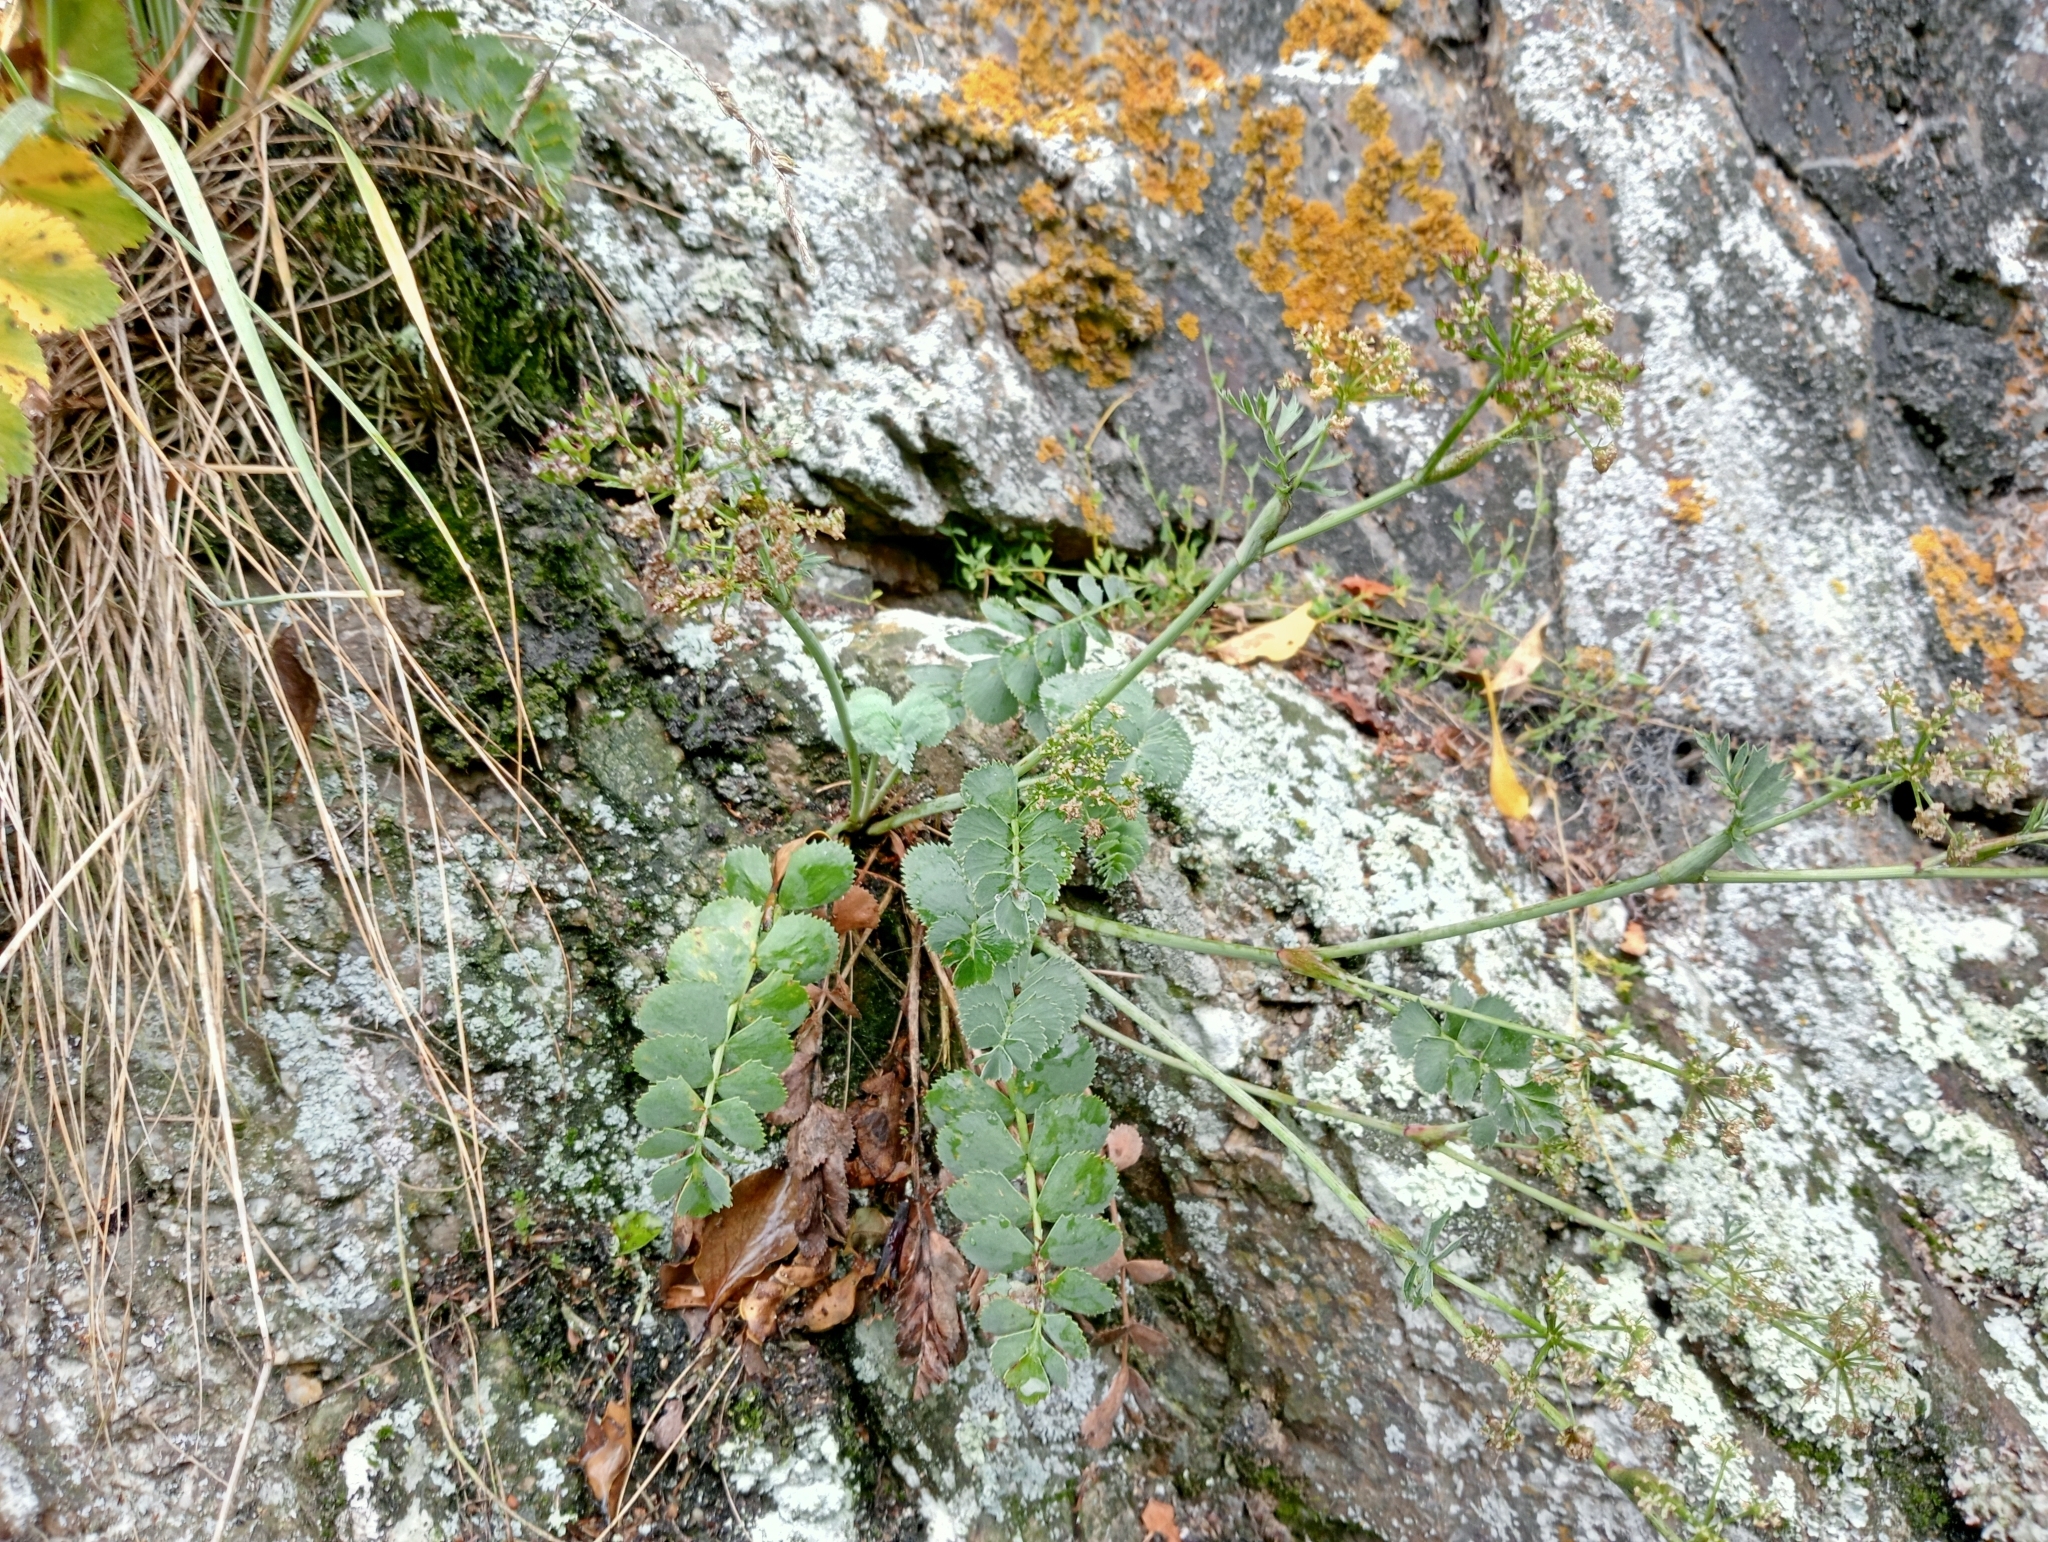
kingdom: Plantae
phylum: Tracheophyta
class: Magnoliopsida
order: Apiales
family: Apiaceae
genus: Gingidia
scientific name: Gingidia grisea
